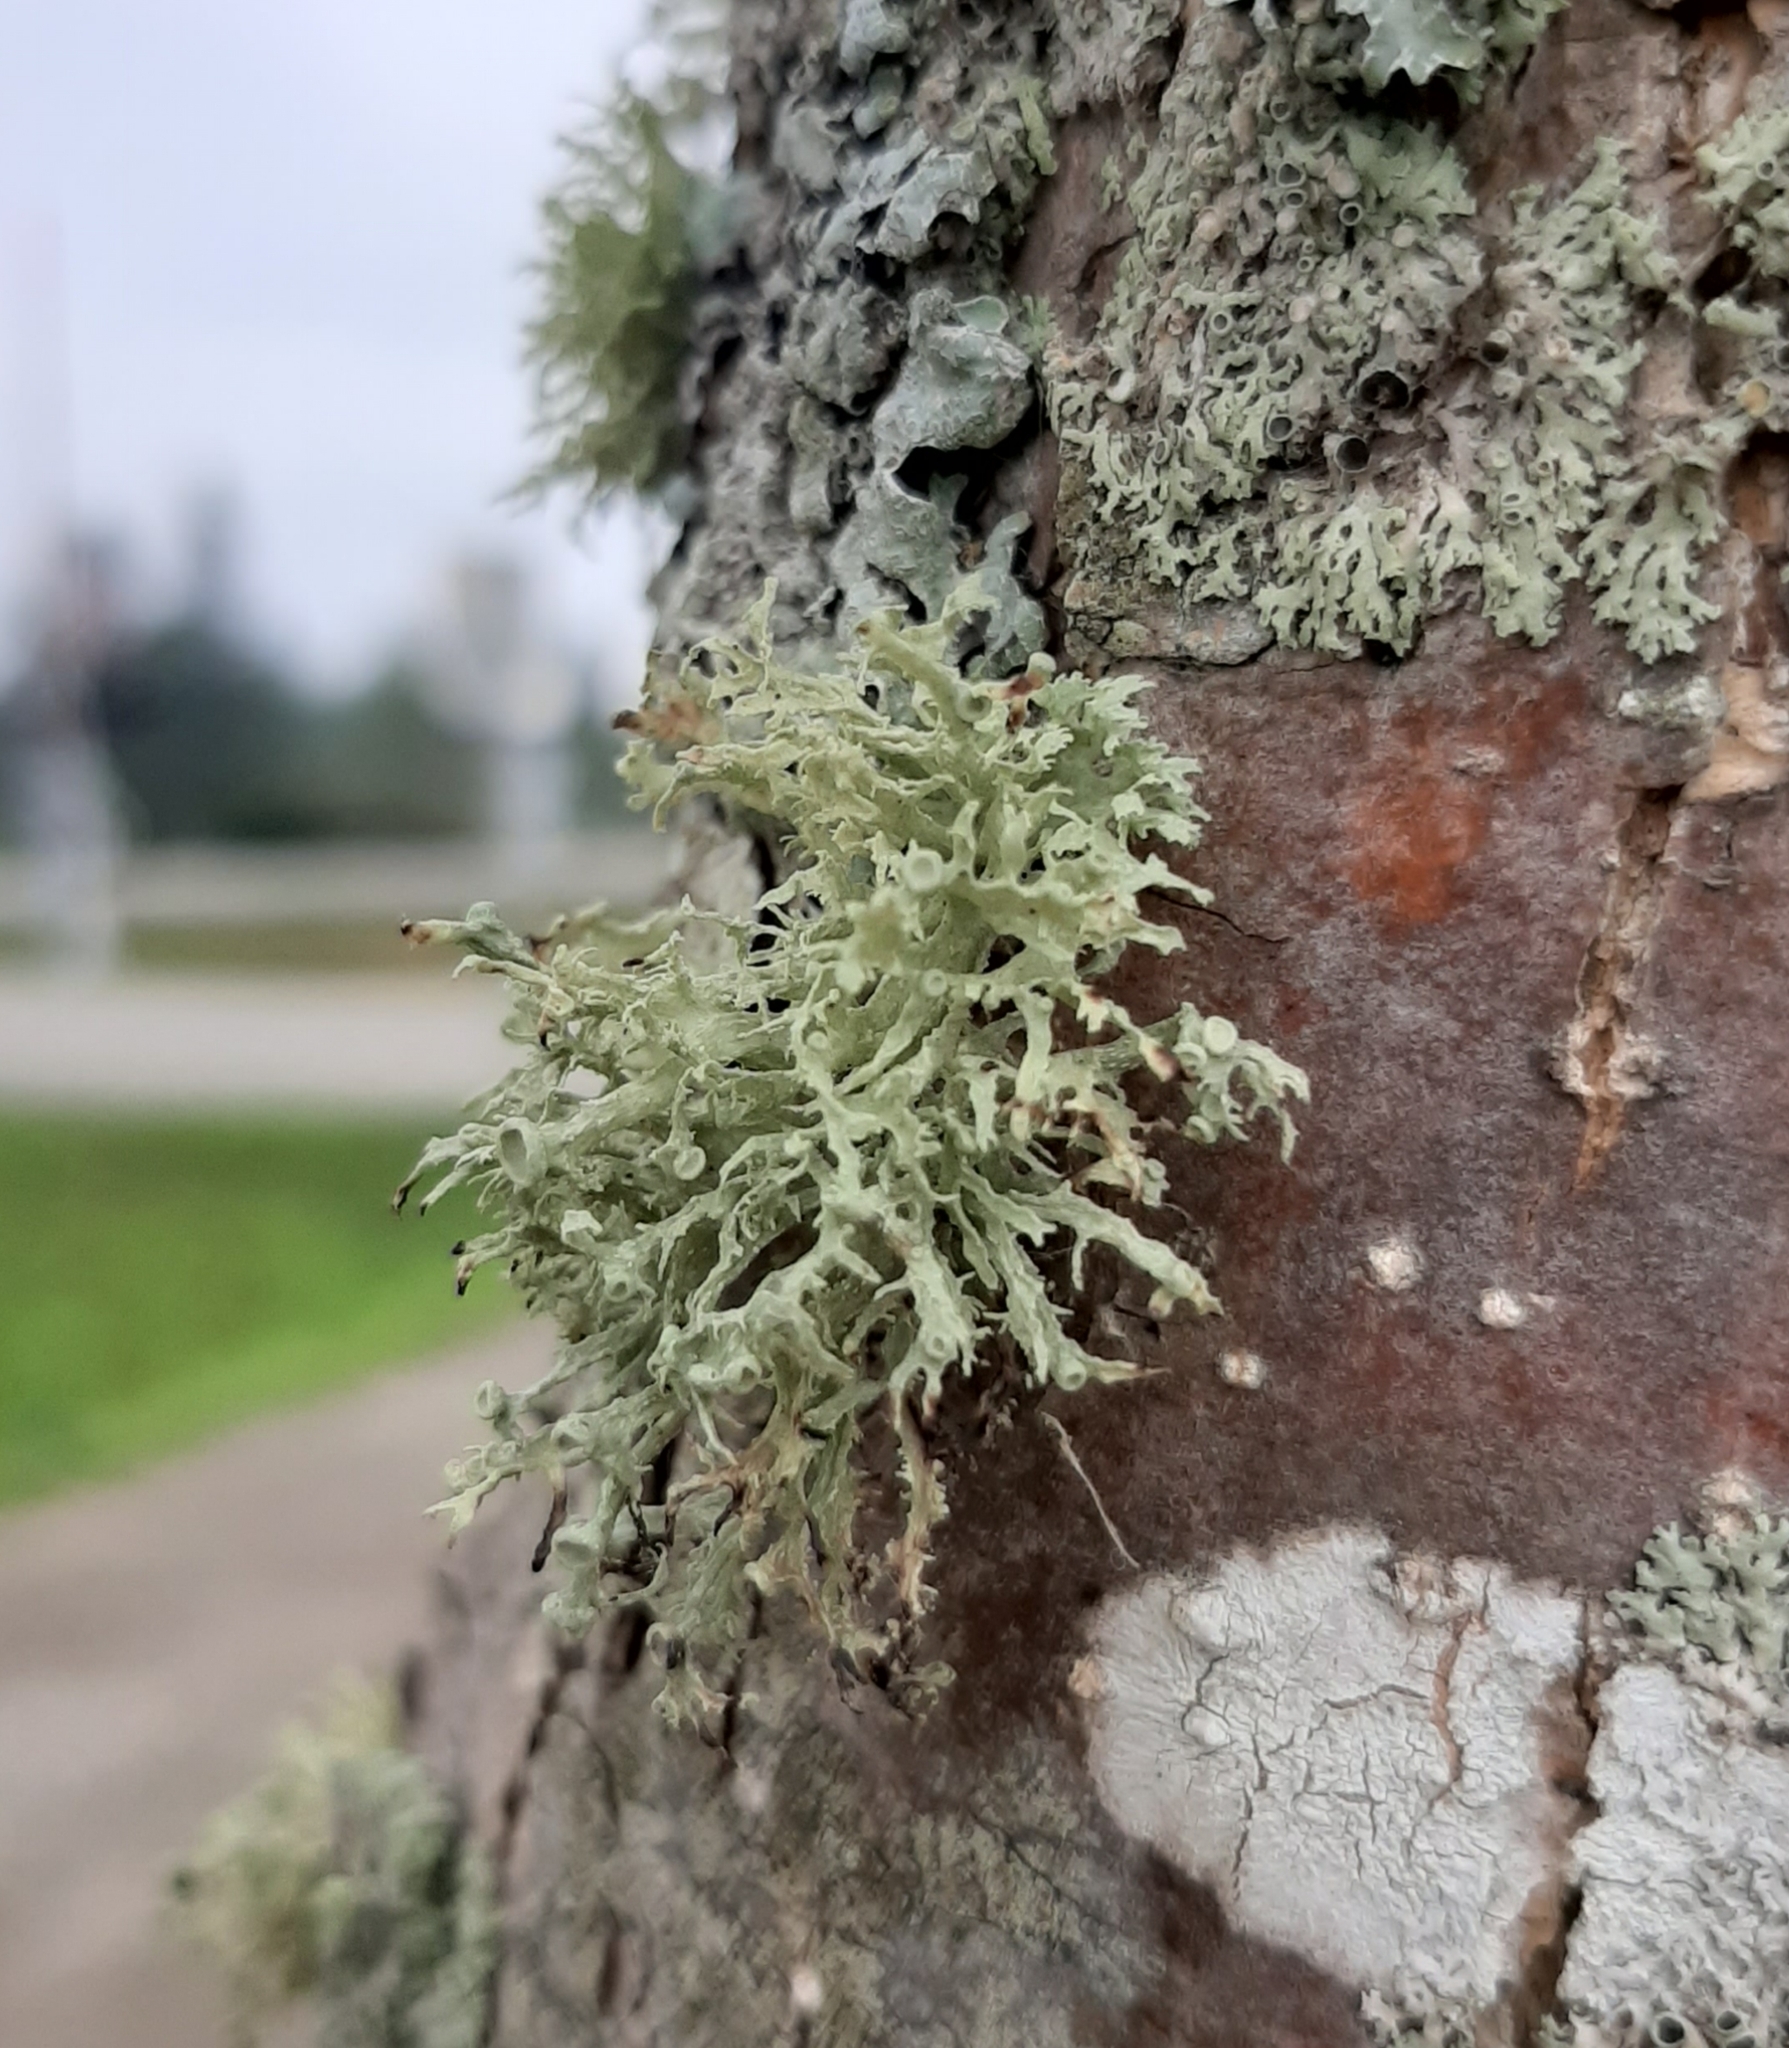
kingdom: Fungi
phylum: Ascomycota
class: Lecanoromycetes
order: Lecanorales
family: Ramalinaceae
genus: Ramalina
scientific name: Ramalina americana
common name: Sinewed bush lichen
